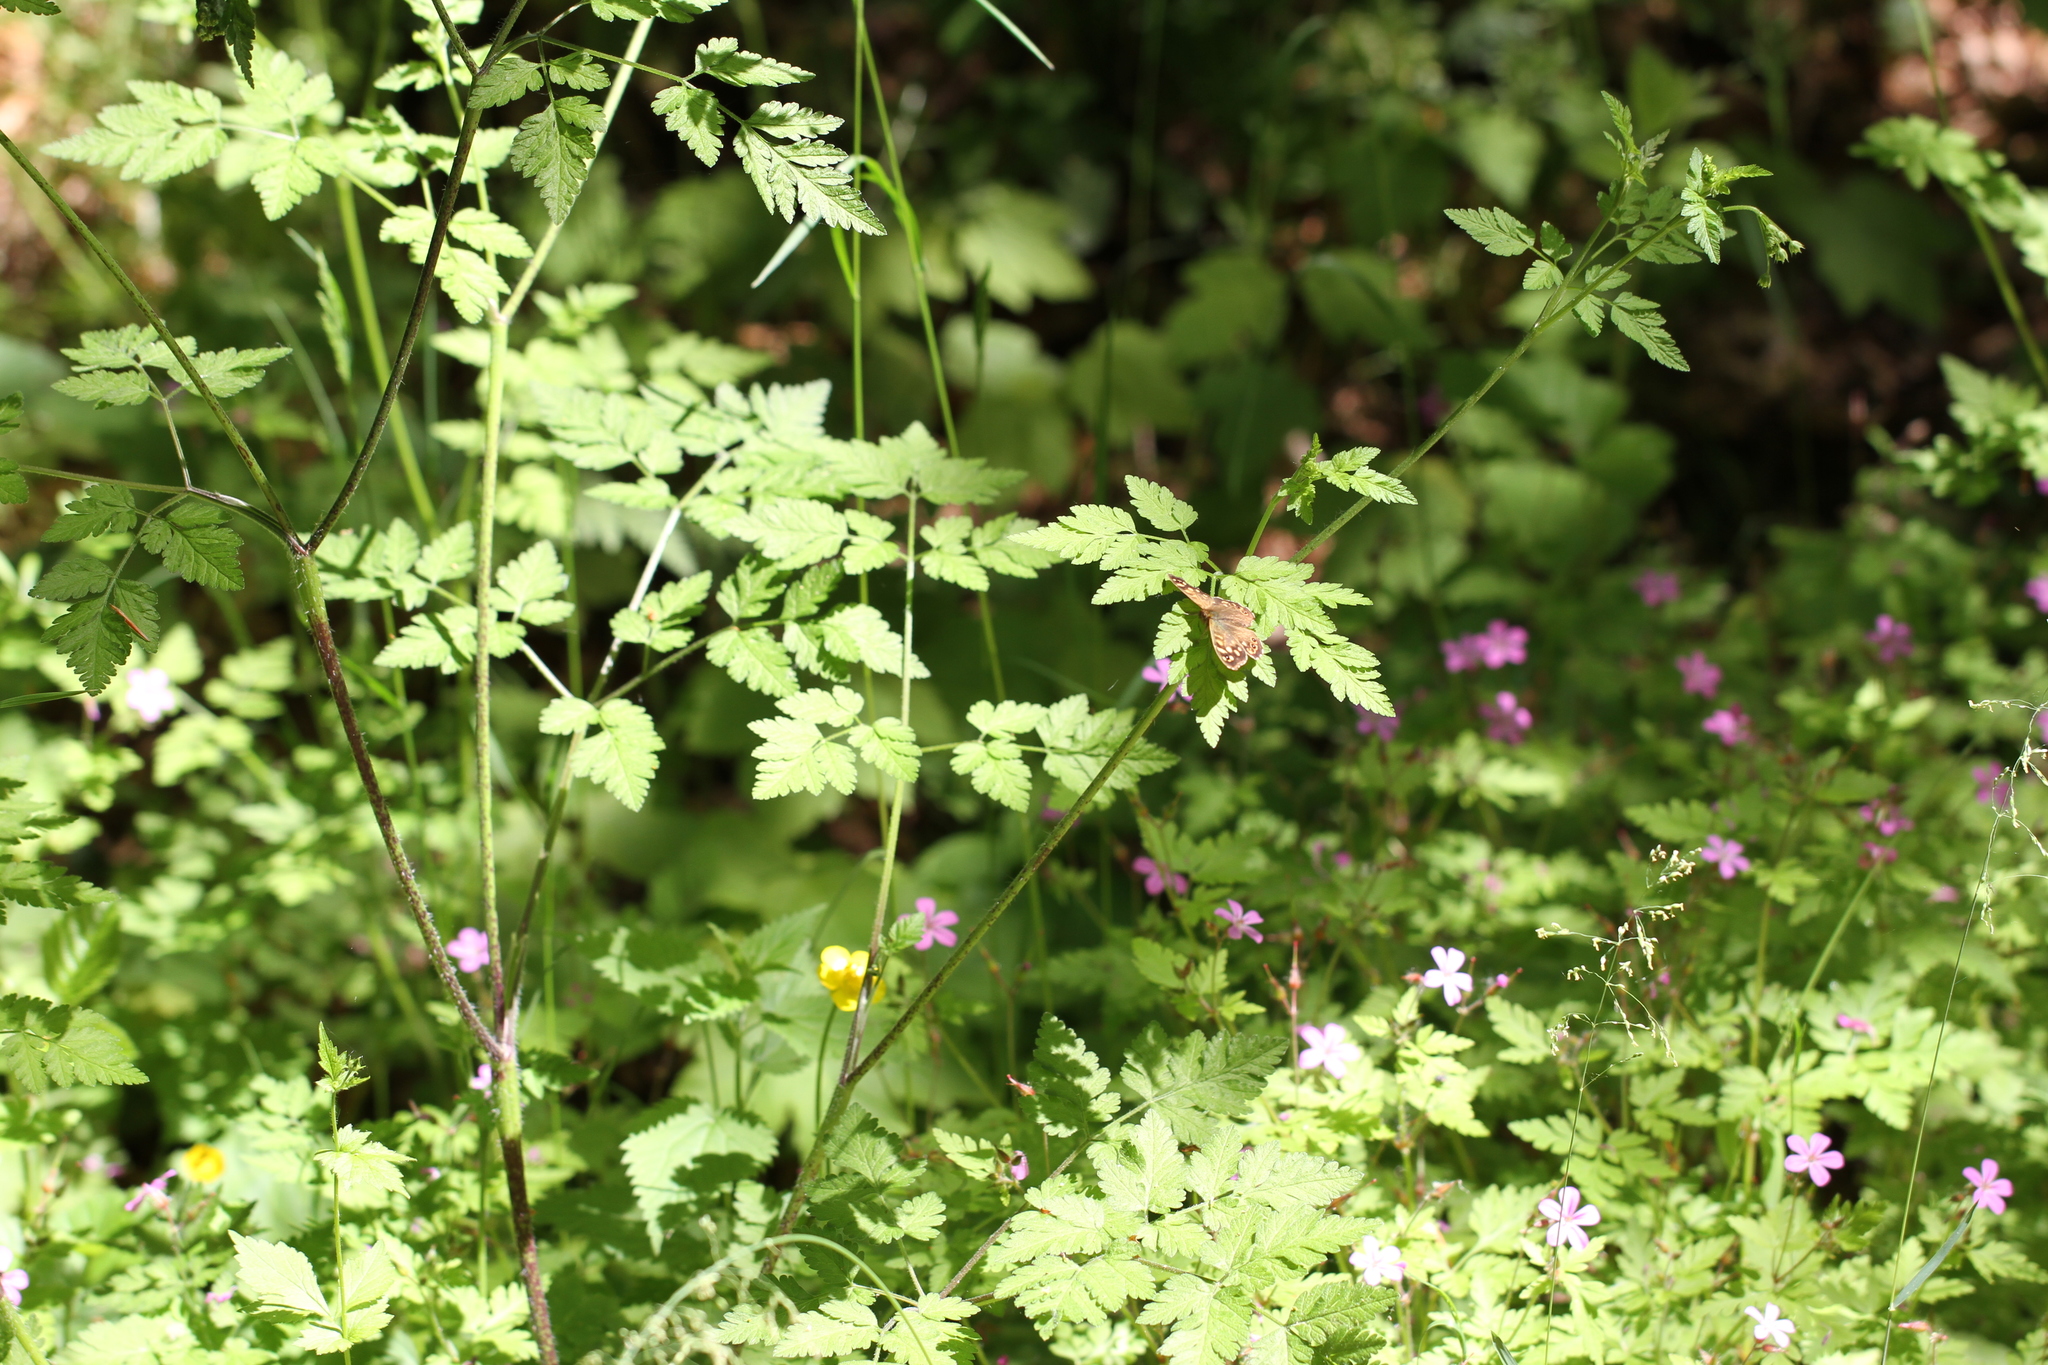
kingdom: Animalia
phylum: Arthropoda
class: Insecta
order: Lepidoptera
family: Nymphalidae
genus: Pararge
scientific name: Pararge aegeria
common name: Speckled wood
